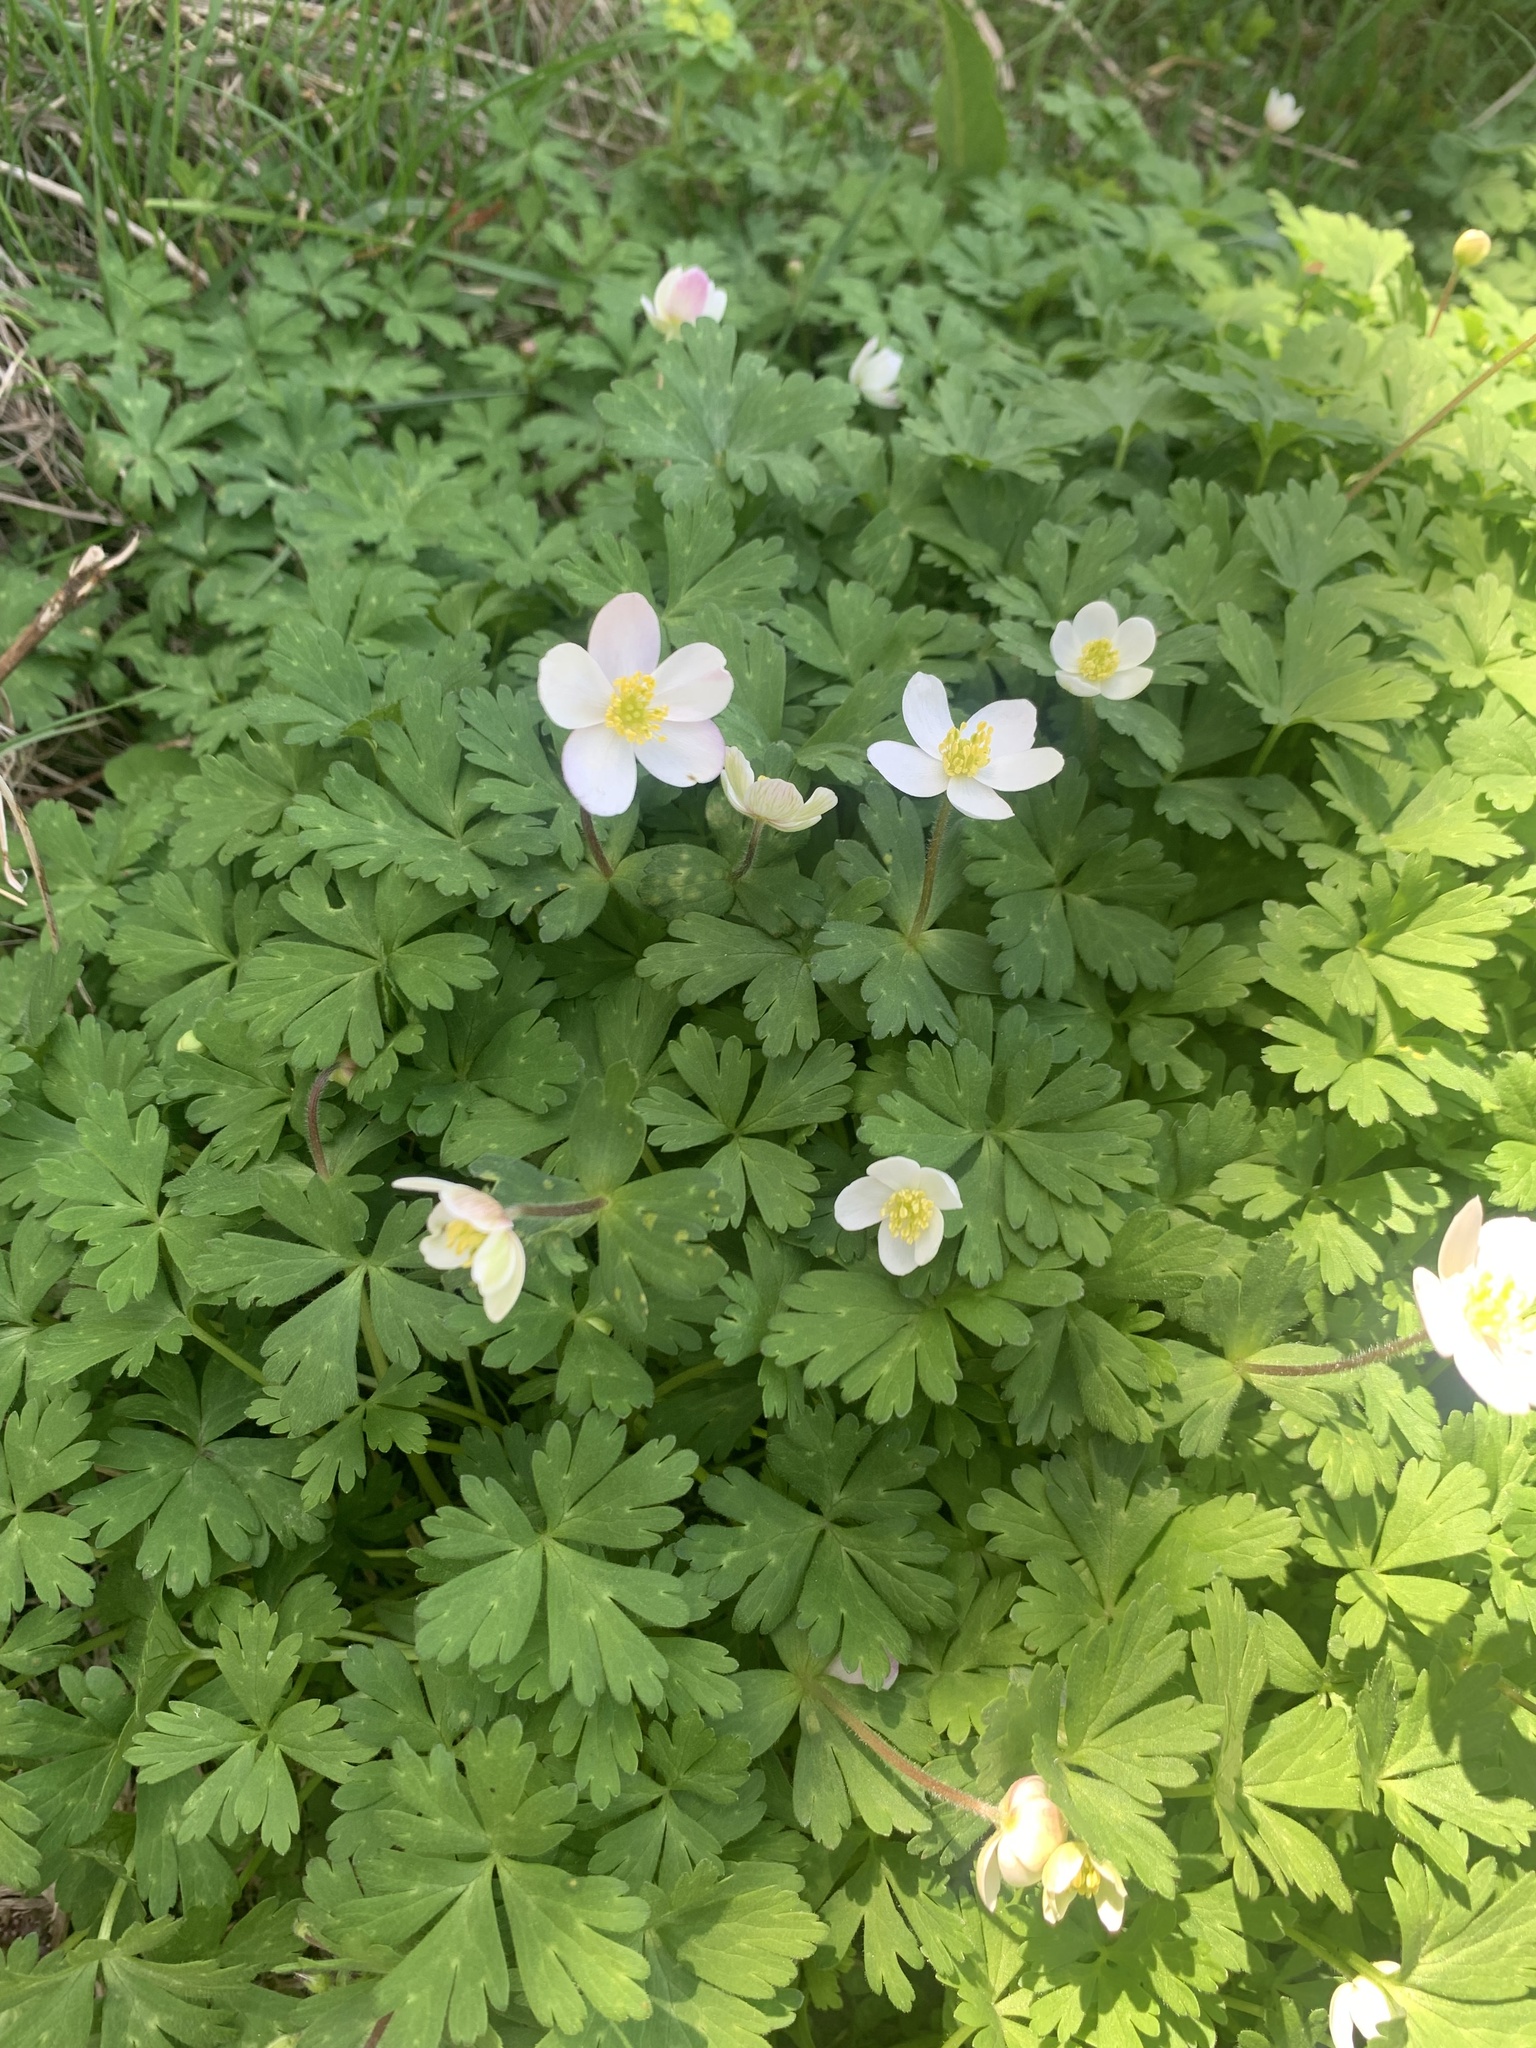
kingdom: Plantae
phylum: Tracheophyta
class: Magnoliopsida
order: Ranunculales
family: Ranunculaceae
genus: Anemonastrum
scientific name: Anemonastrum flaccidum
